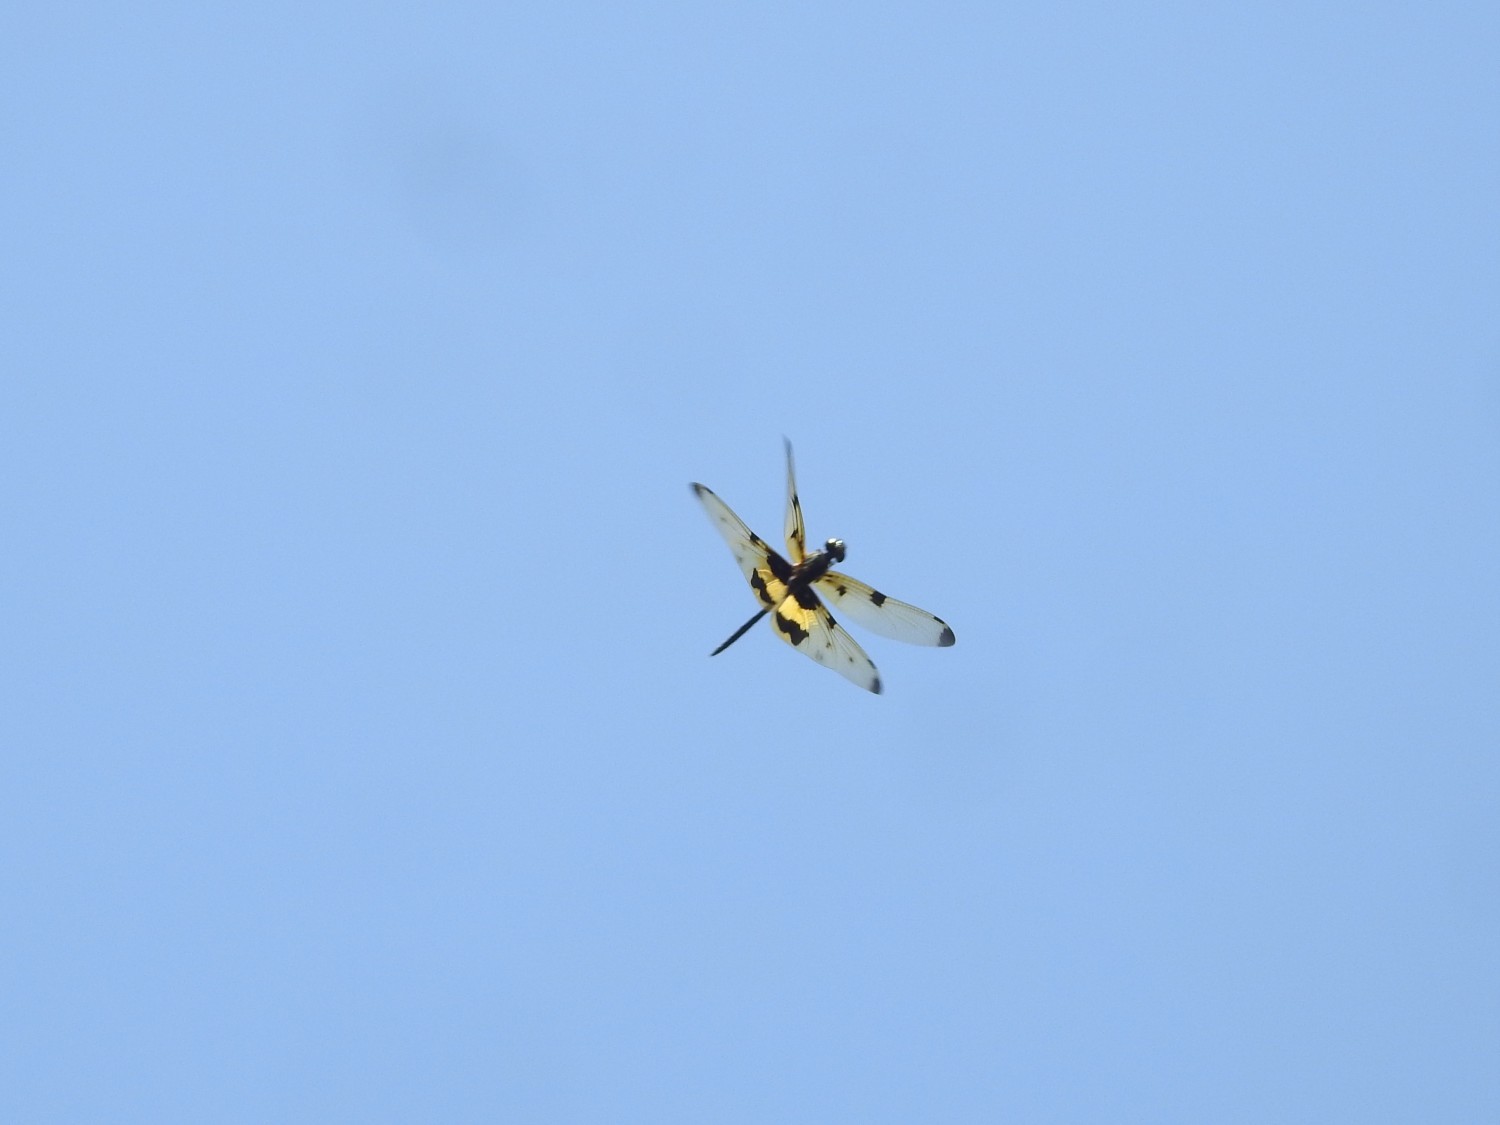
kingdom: Animalia
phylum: Arthropoda
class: Insecta
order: Odonata
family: Libellulidae
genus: Rhyothemis
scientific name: Rhyothemis variegata
